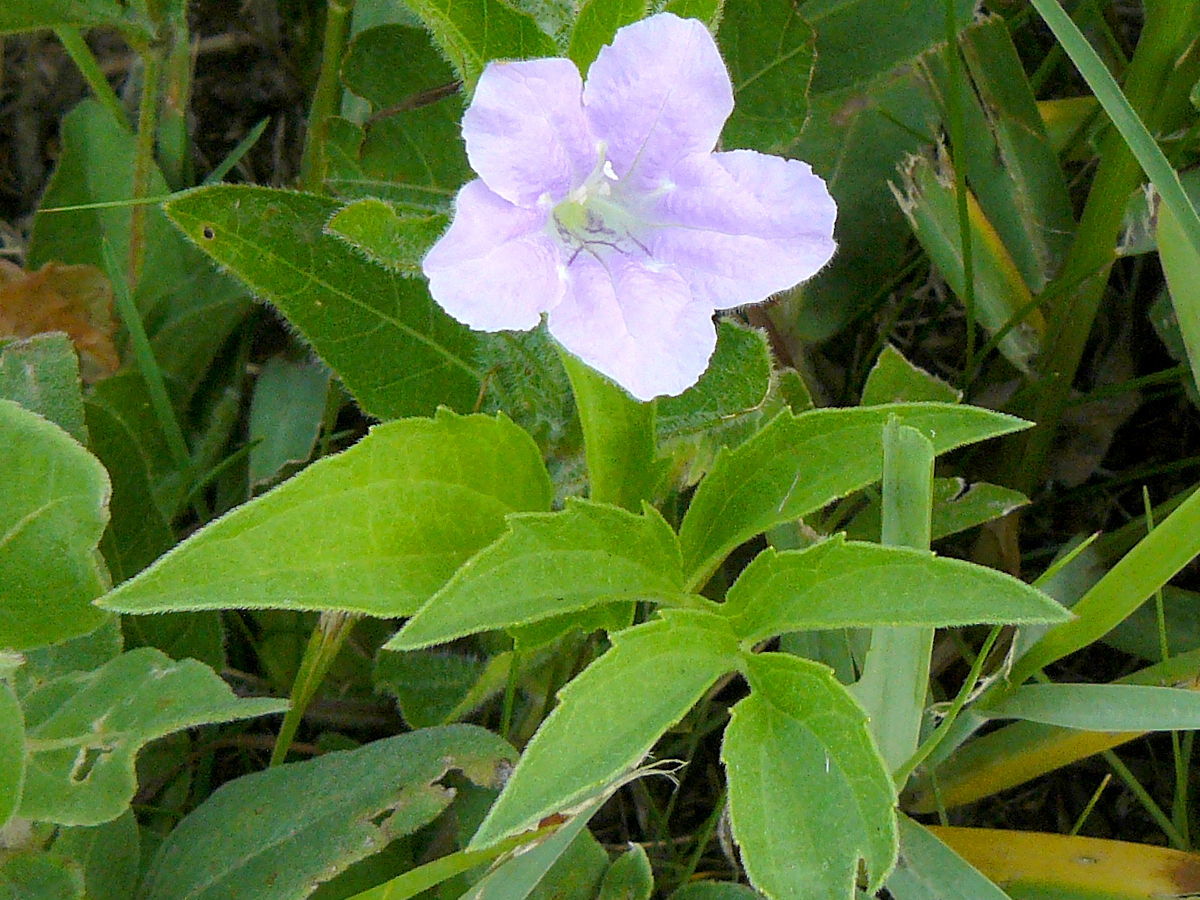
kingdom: Plantae
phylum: Tracheophyta
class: Magnoliopsida
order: Lamiales
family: Acanthaceae
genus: Ruellia
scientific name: Ruellia humilis
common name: Fringe-leaf ruellia
